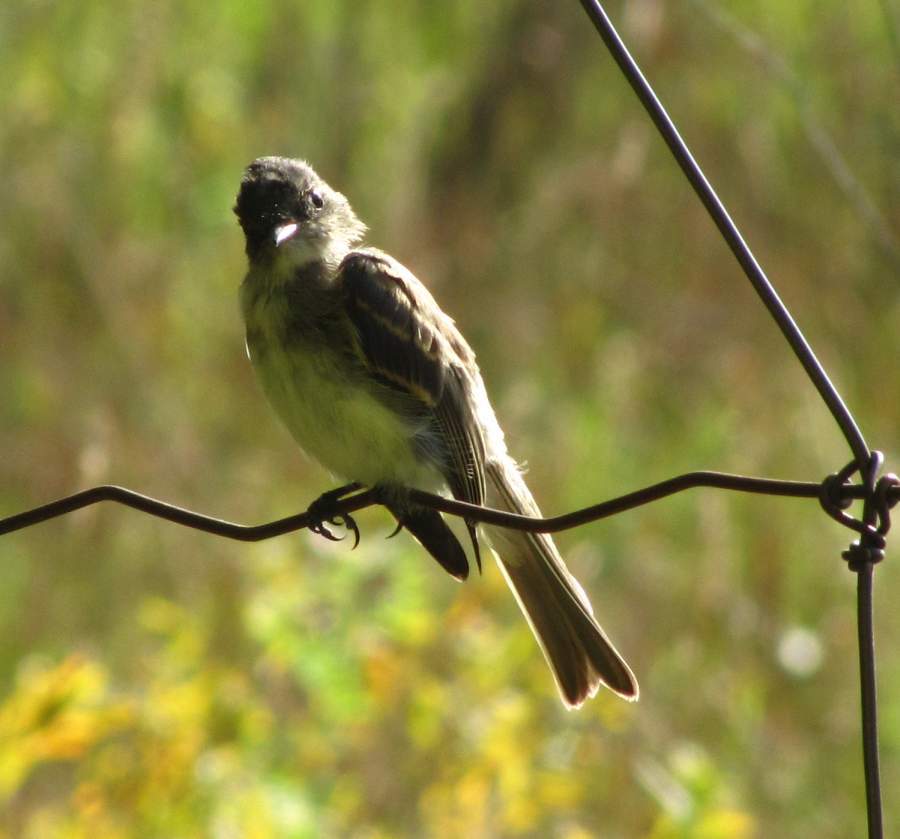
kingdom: Animalia
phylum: Chordata
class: Aves
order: Passeriformes
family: Tyrannidae
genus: Sayornis
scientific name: Sayornis phoebe
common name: Eastern phoebe
